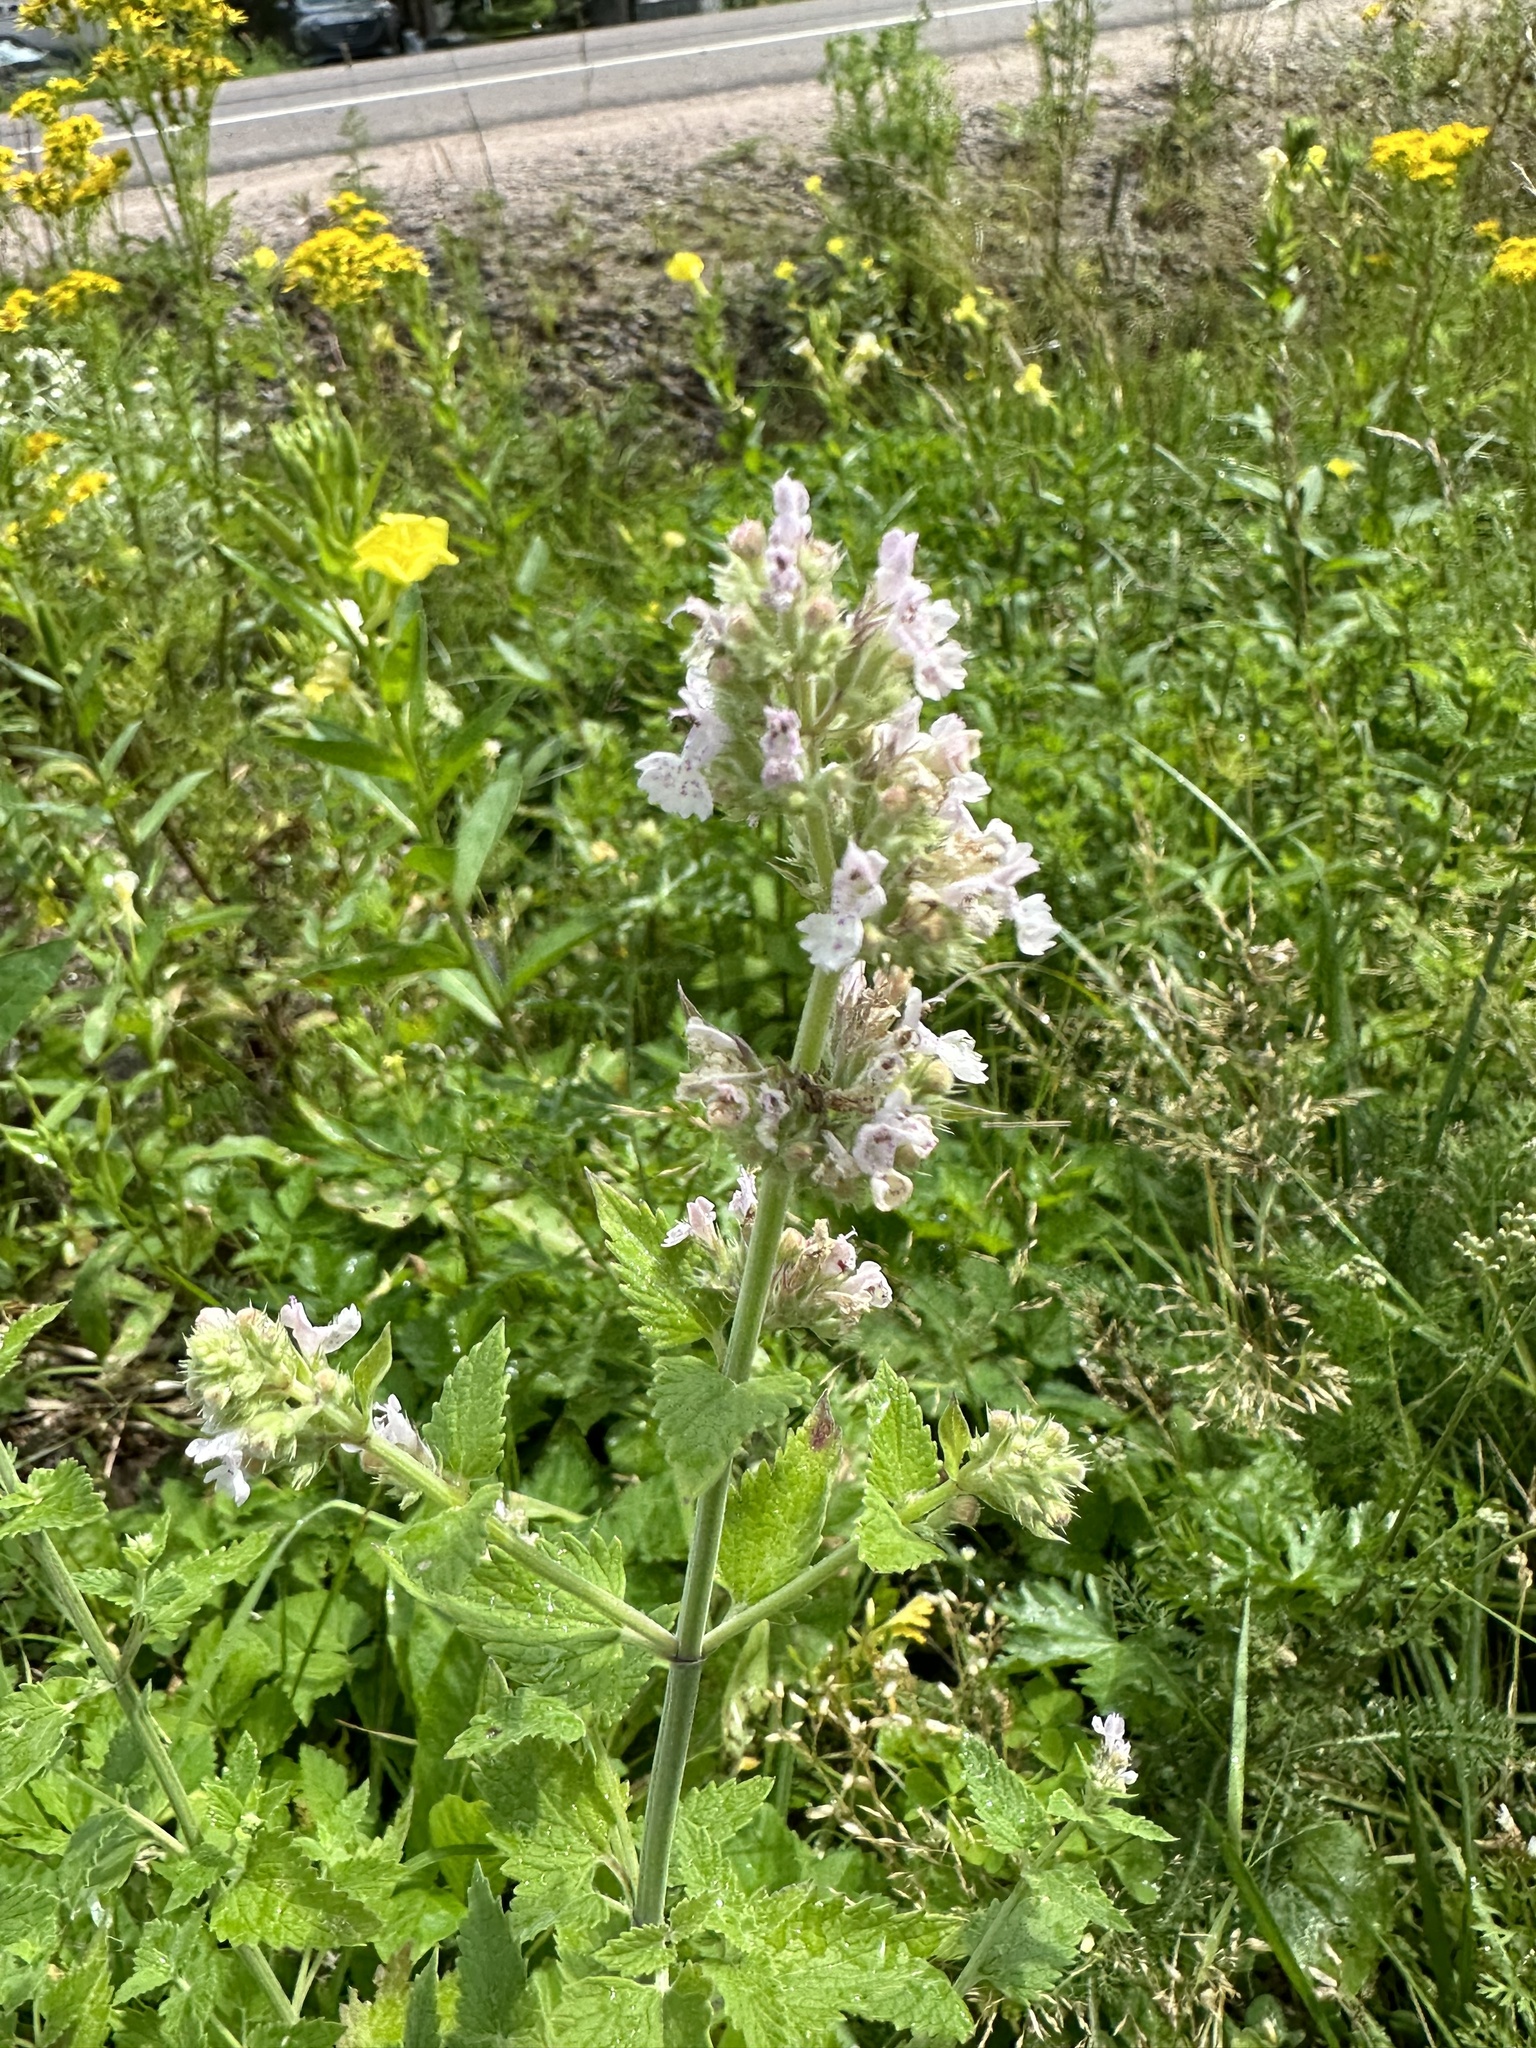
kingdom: Plantae
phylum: Tracheophyta
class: Magnoliopsida
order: Lamiales
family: Lamiaceae
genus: Nepeta
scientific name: Nepeta cataria
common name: Catnip
